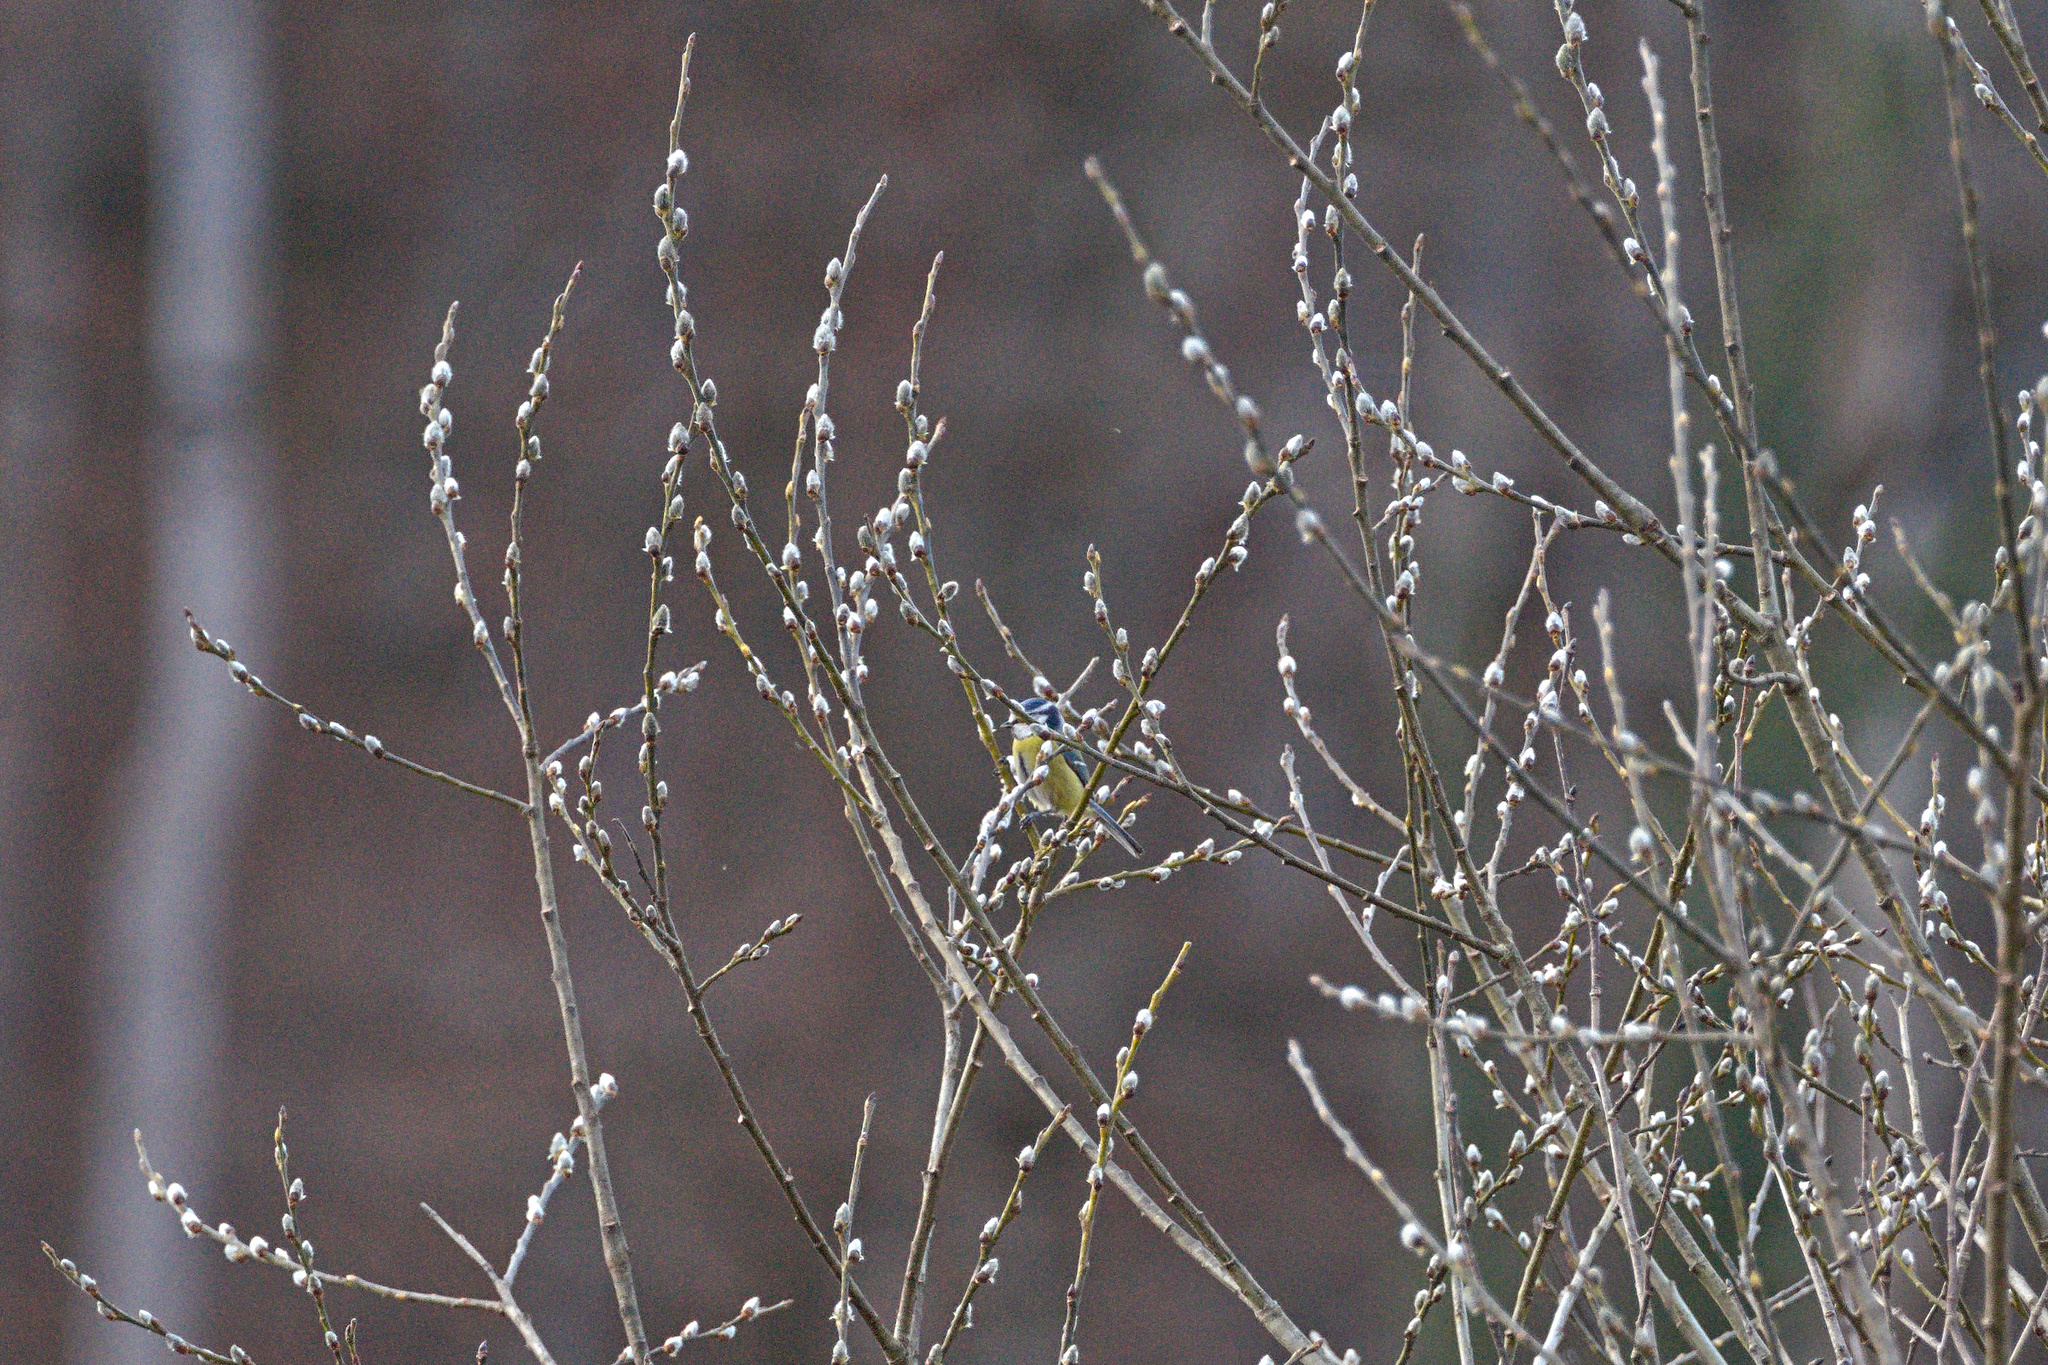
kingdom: Animalia
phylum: Chordata
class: Aves
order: Passeriformes
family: Paridae
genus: Cyanistes
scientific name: Cyanistes caeruleus
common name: Eurasian blue tit
